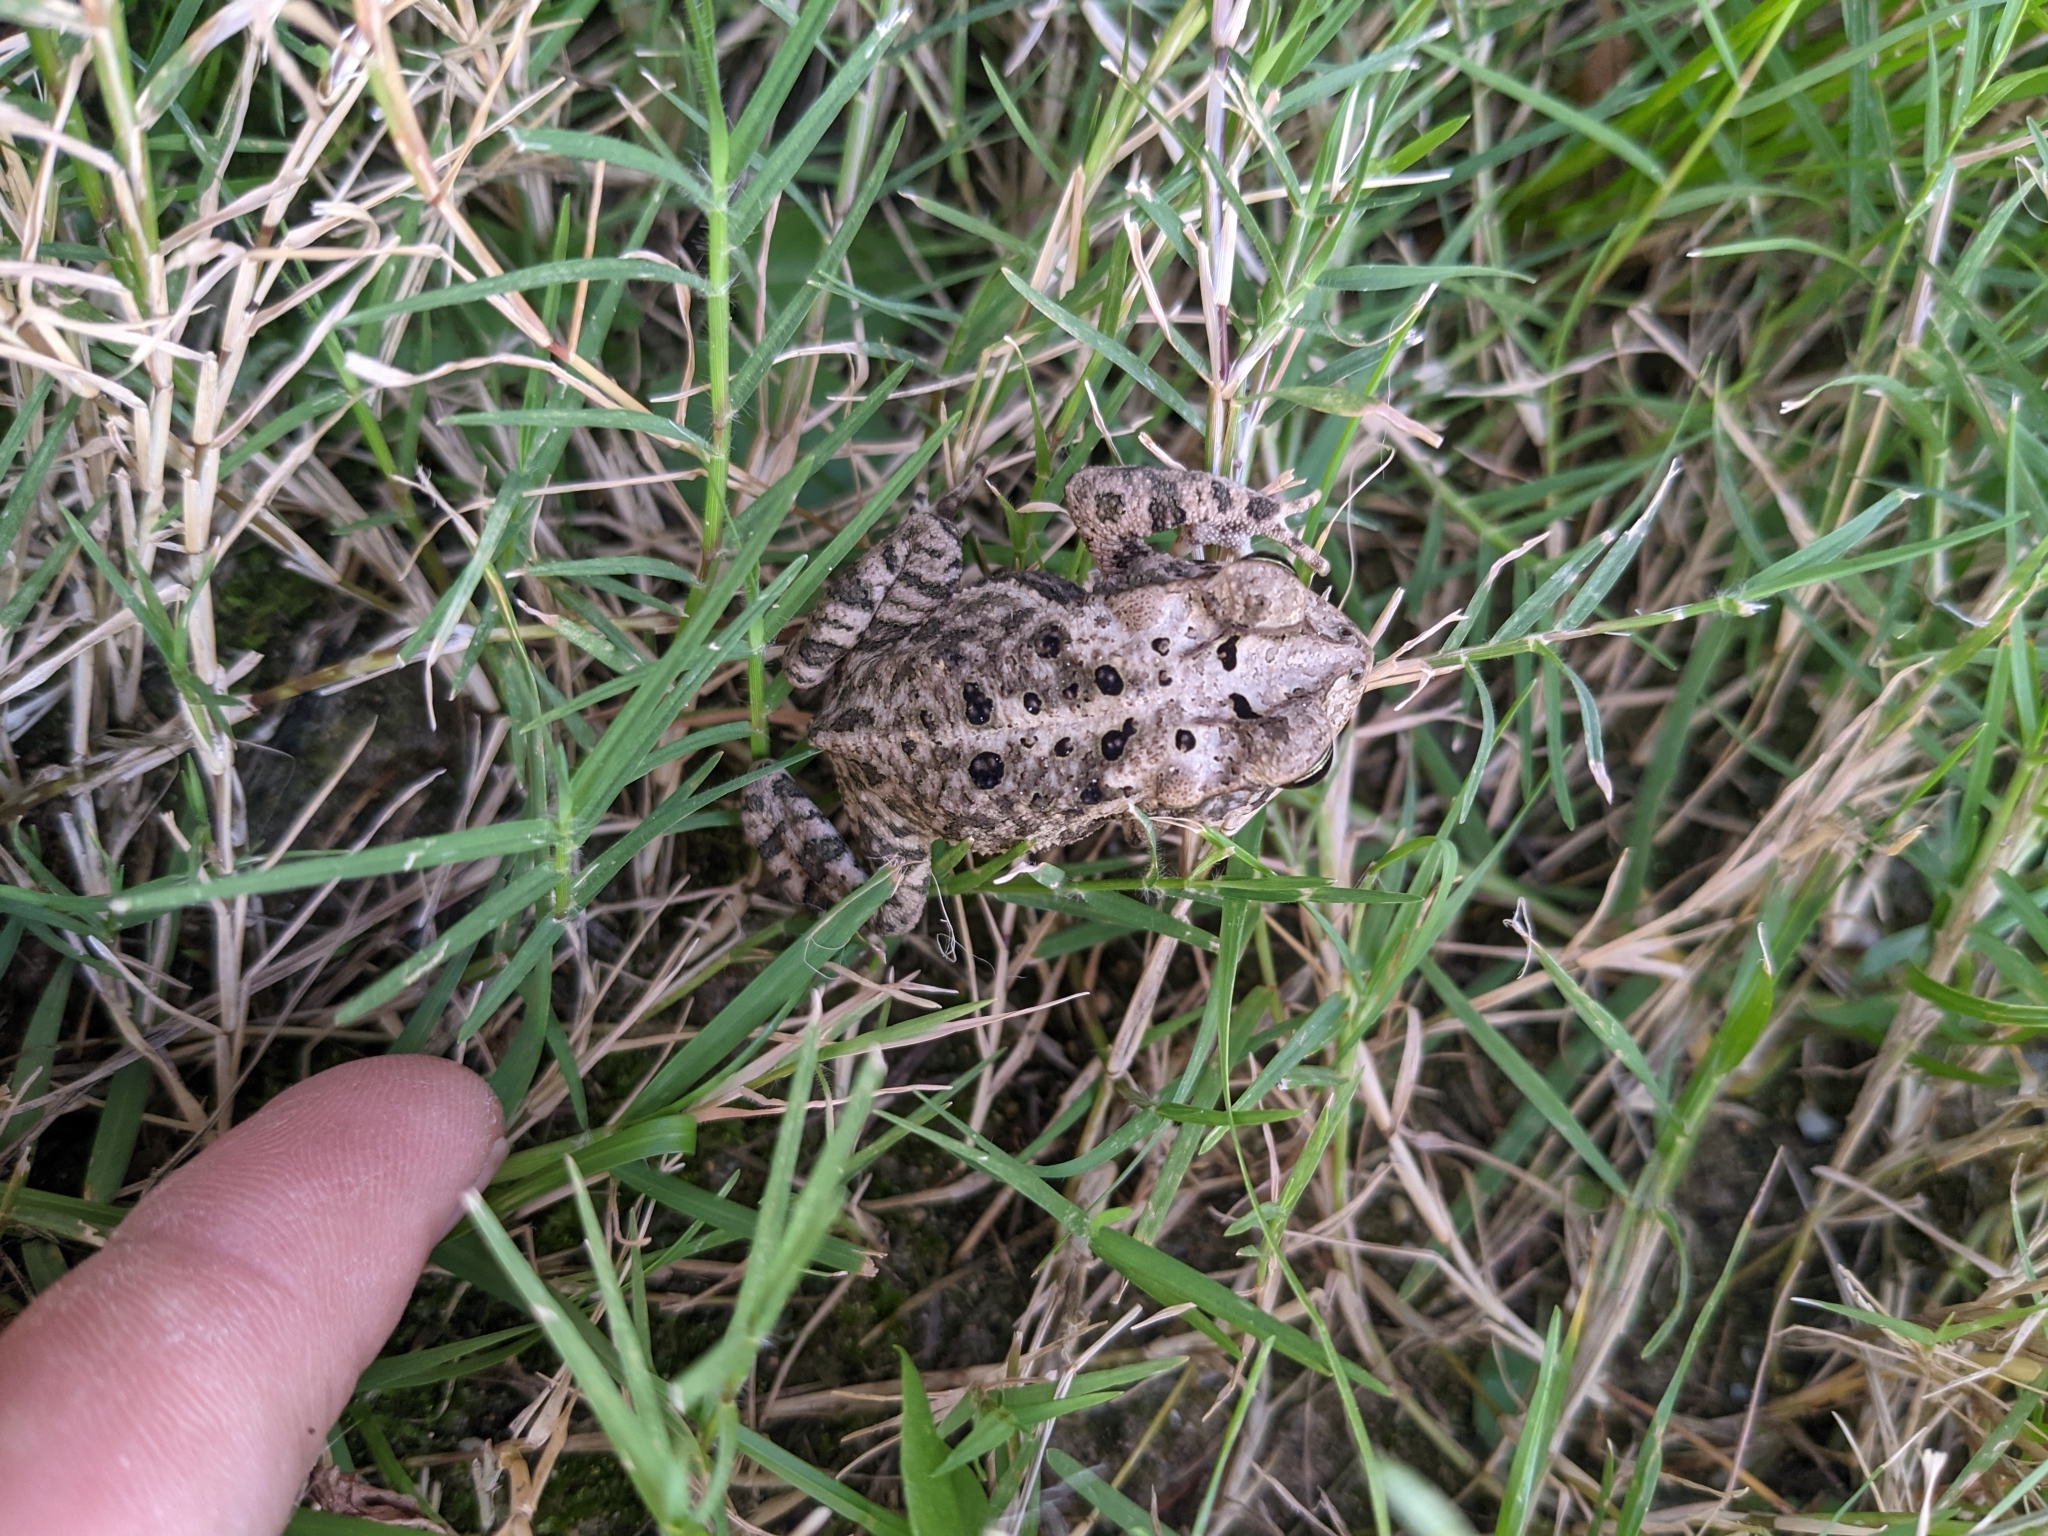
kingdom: Animalia
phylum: Chordata
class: Amphibia
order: Anura
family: Bufonidae
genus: Incilius
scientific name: Incilius nebulifer
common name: Gulf coast toad
